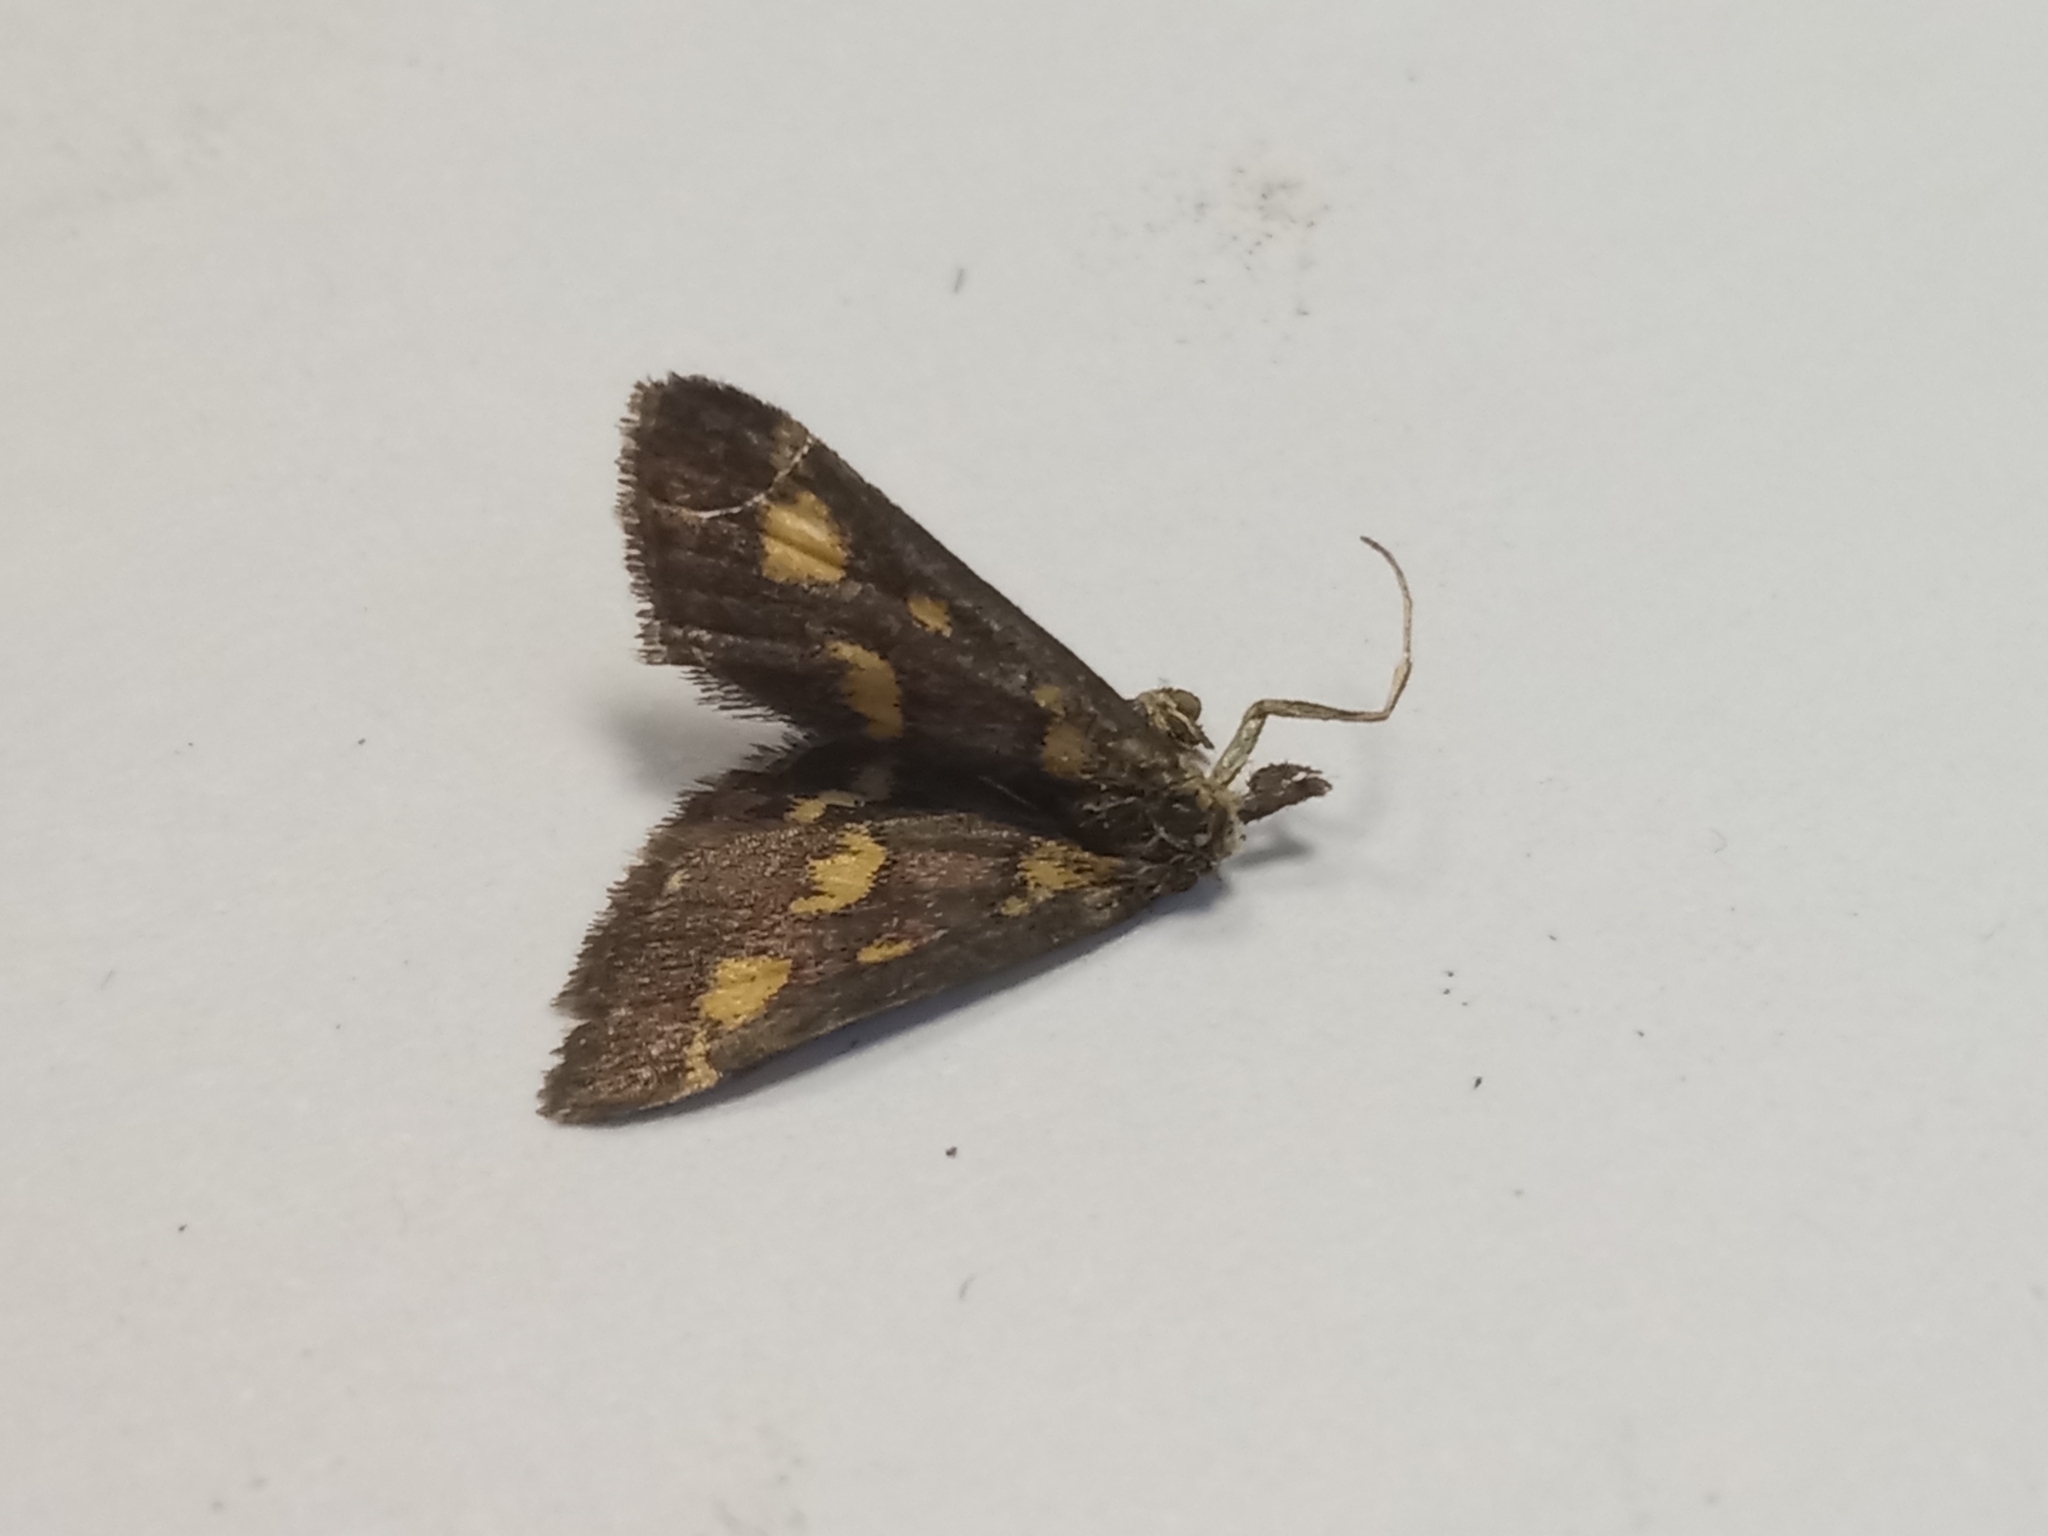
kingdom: Animalia
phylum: Arthropoda
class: Insecta
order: Lepidoptera
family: Crambidae
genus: Pyrausta
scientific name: Pyrausta purpuralis
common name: Common purple & gold
